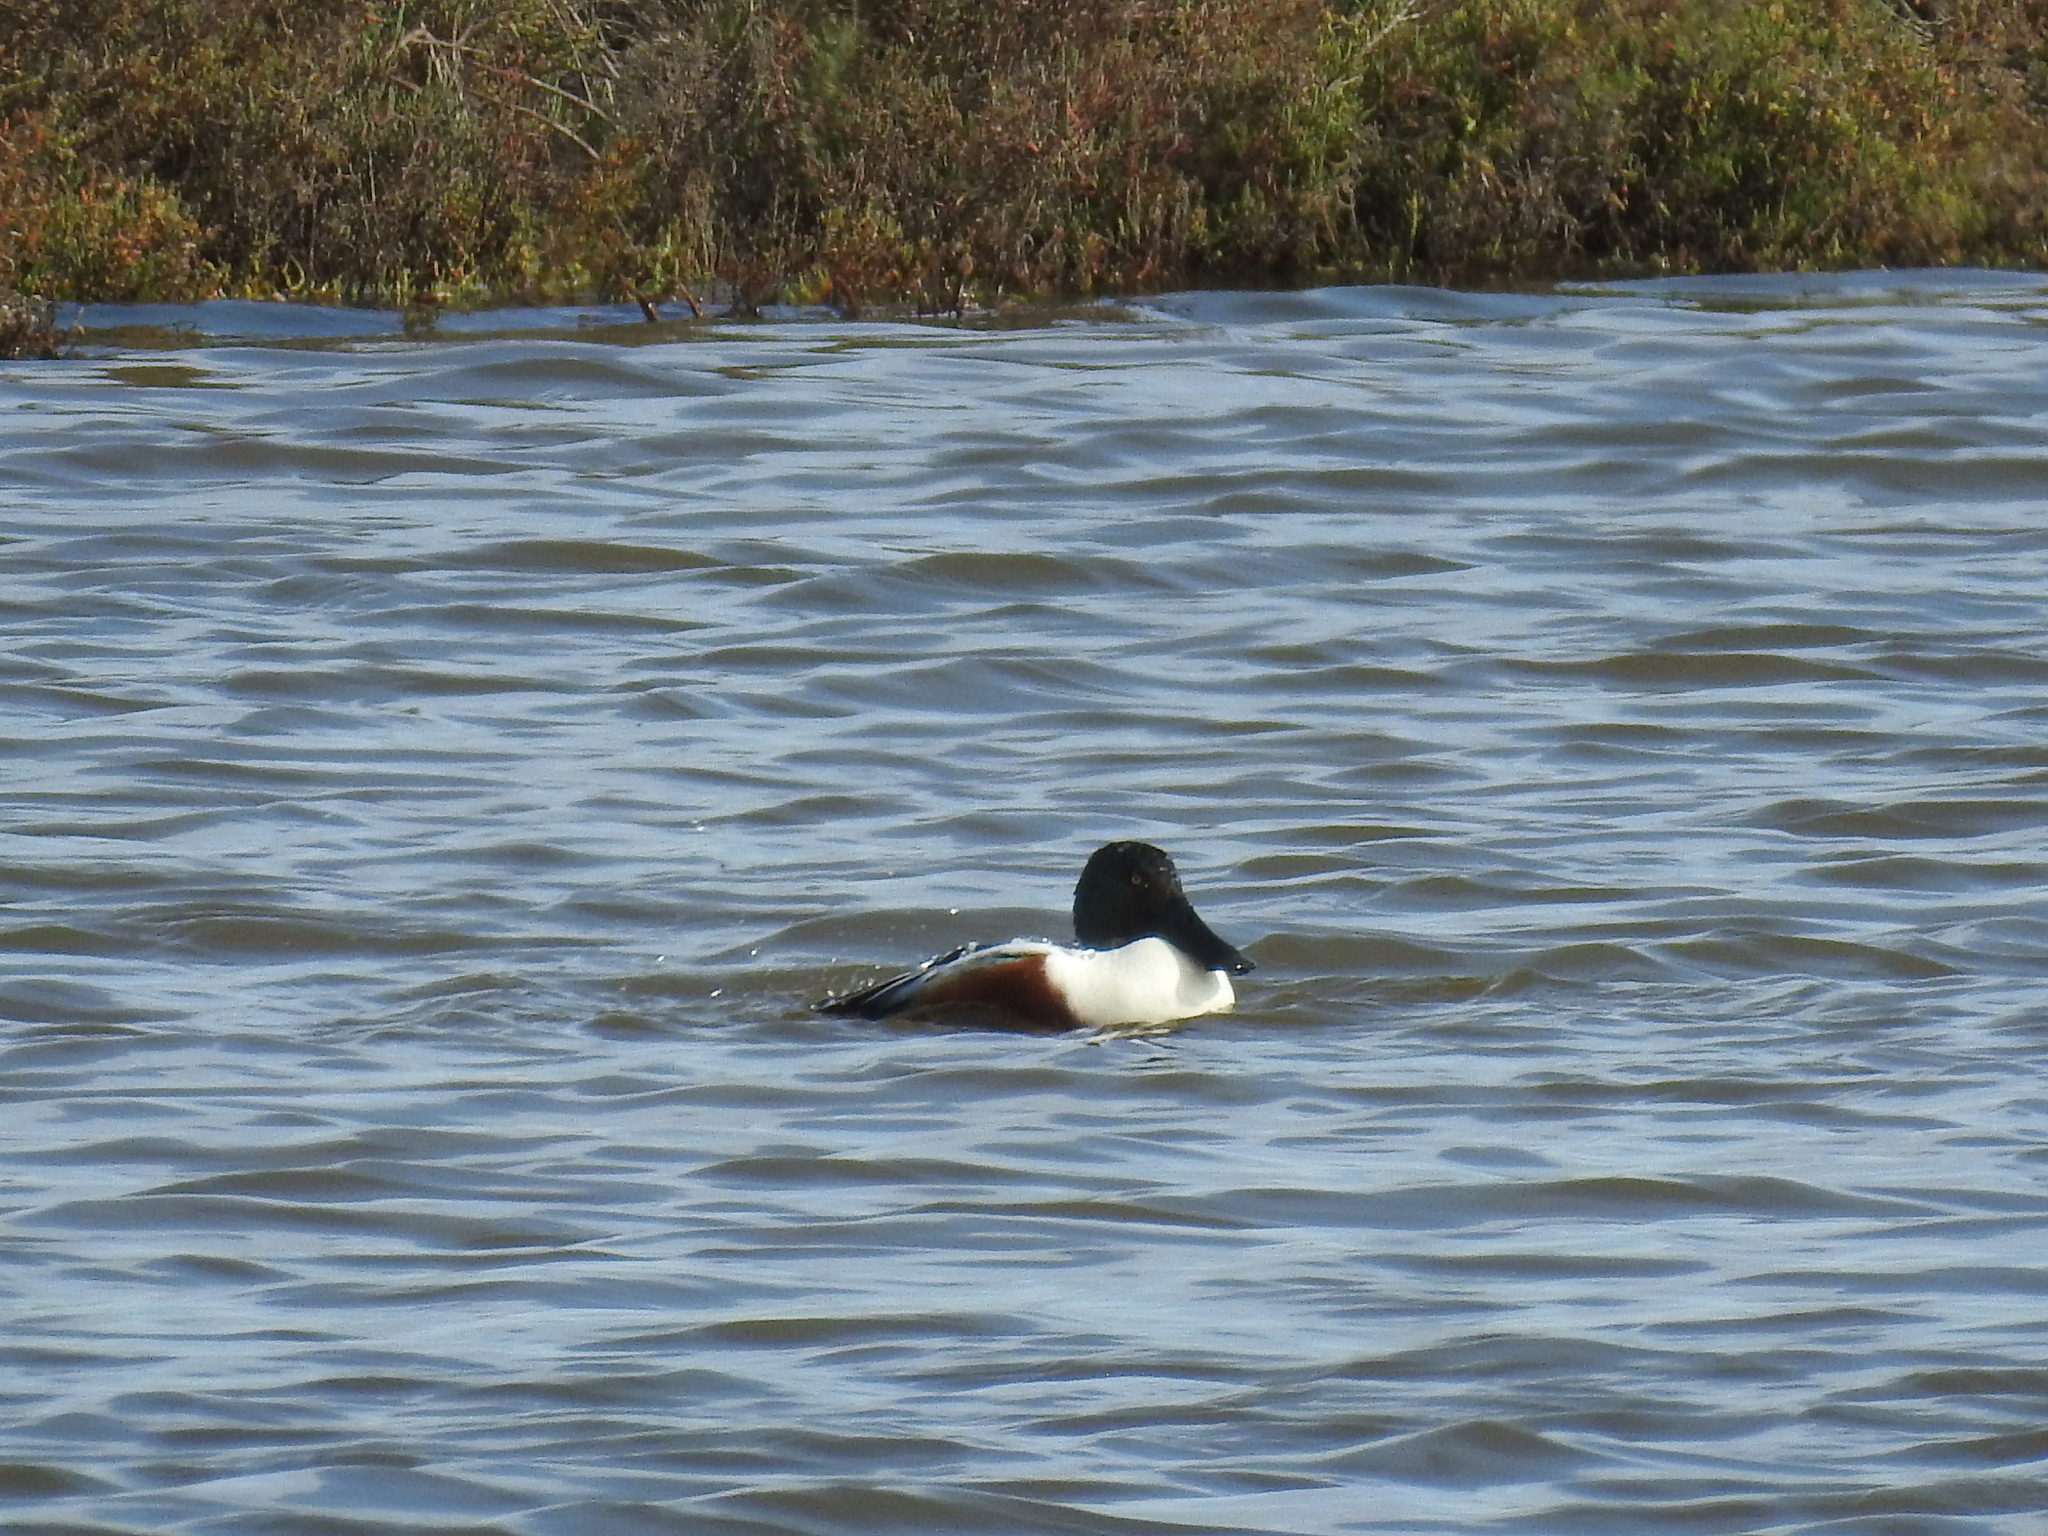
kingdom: Animalia
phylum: Chordata
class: Aves
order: Anseriformes
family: Anatidae
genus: Spatula
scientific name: Spatula clypeata
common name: Northern shoveler
